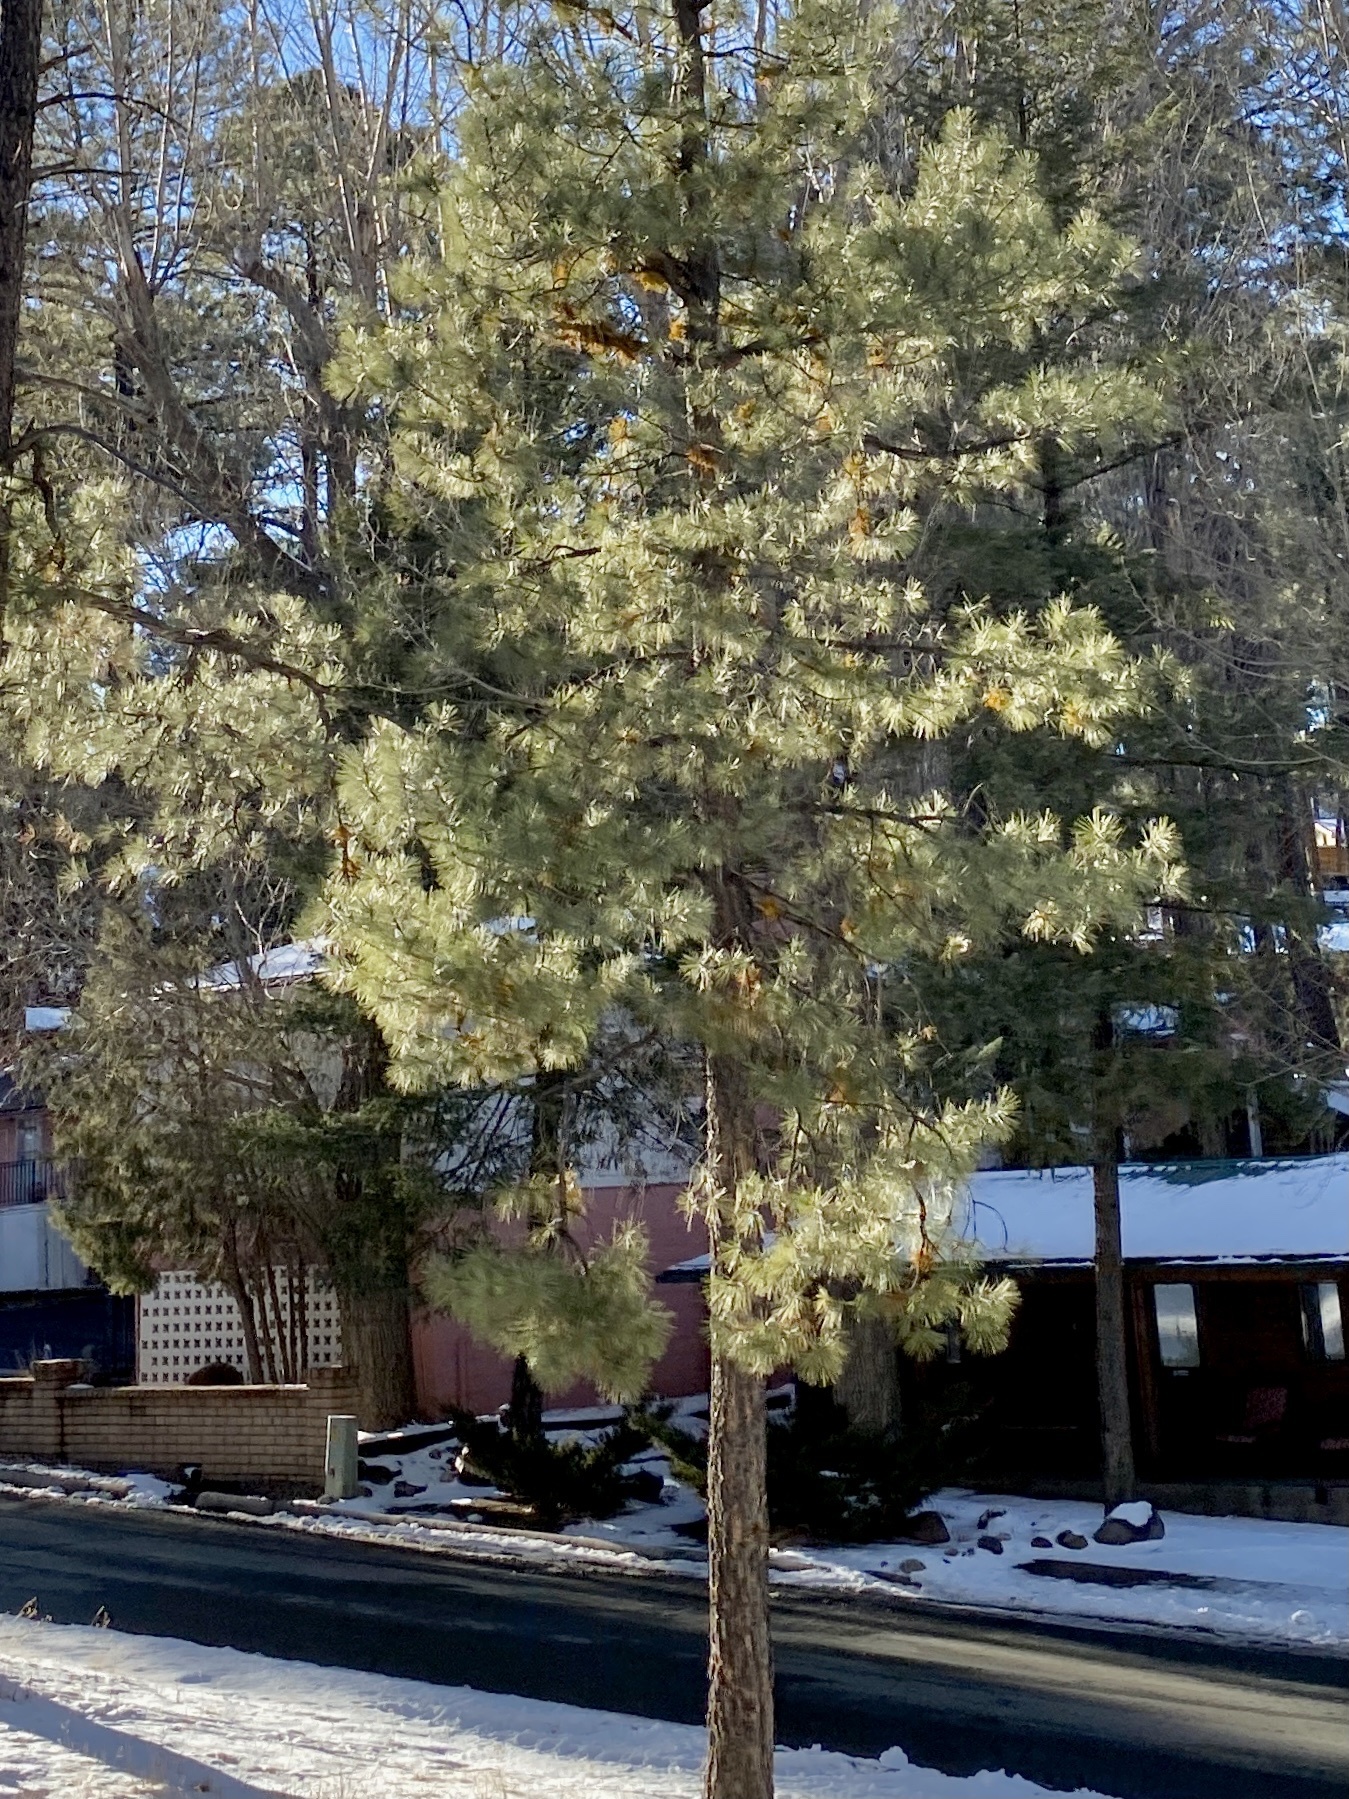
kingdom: Plantae
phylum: Tracheophyta
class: Pinopsida
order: Pinales
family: Pinaceae
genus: Pinus
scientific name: Pinus ponderosa
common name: Western yellow-pine
